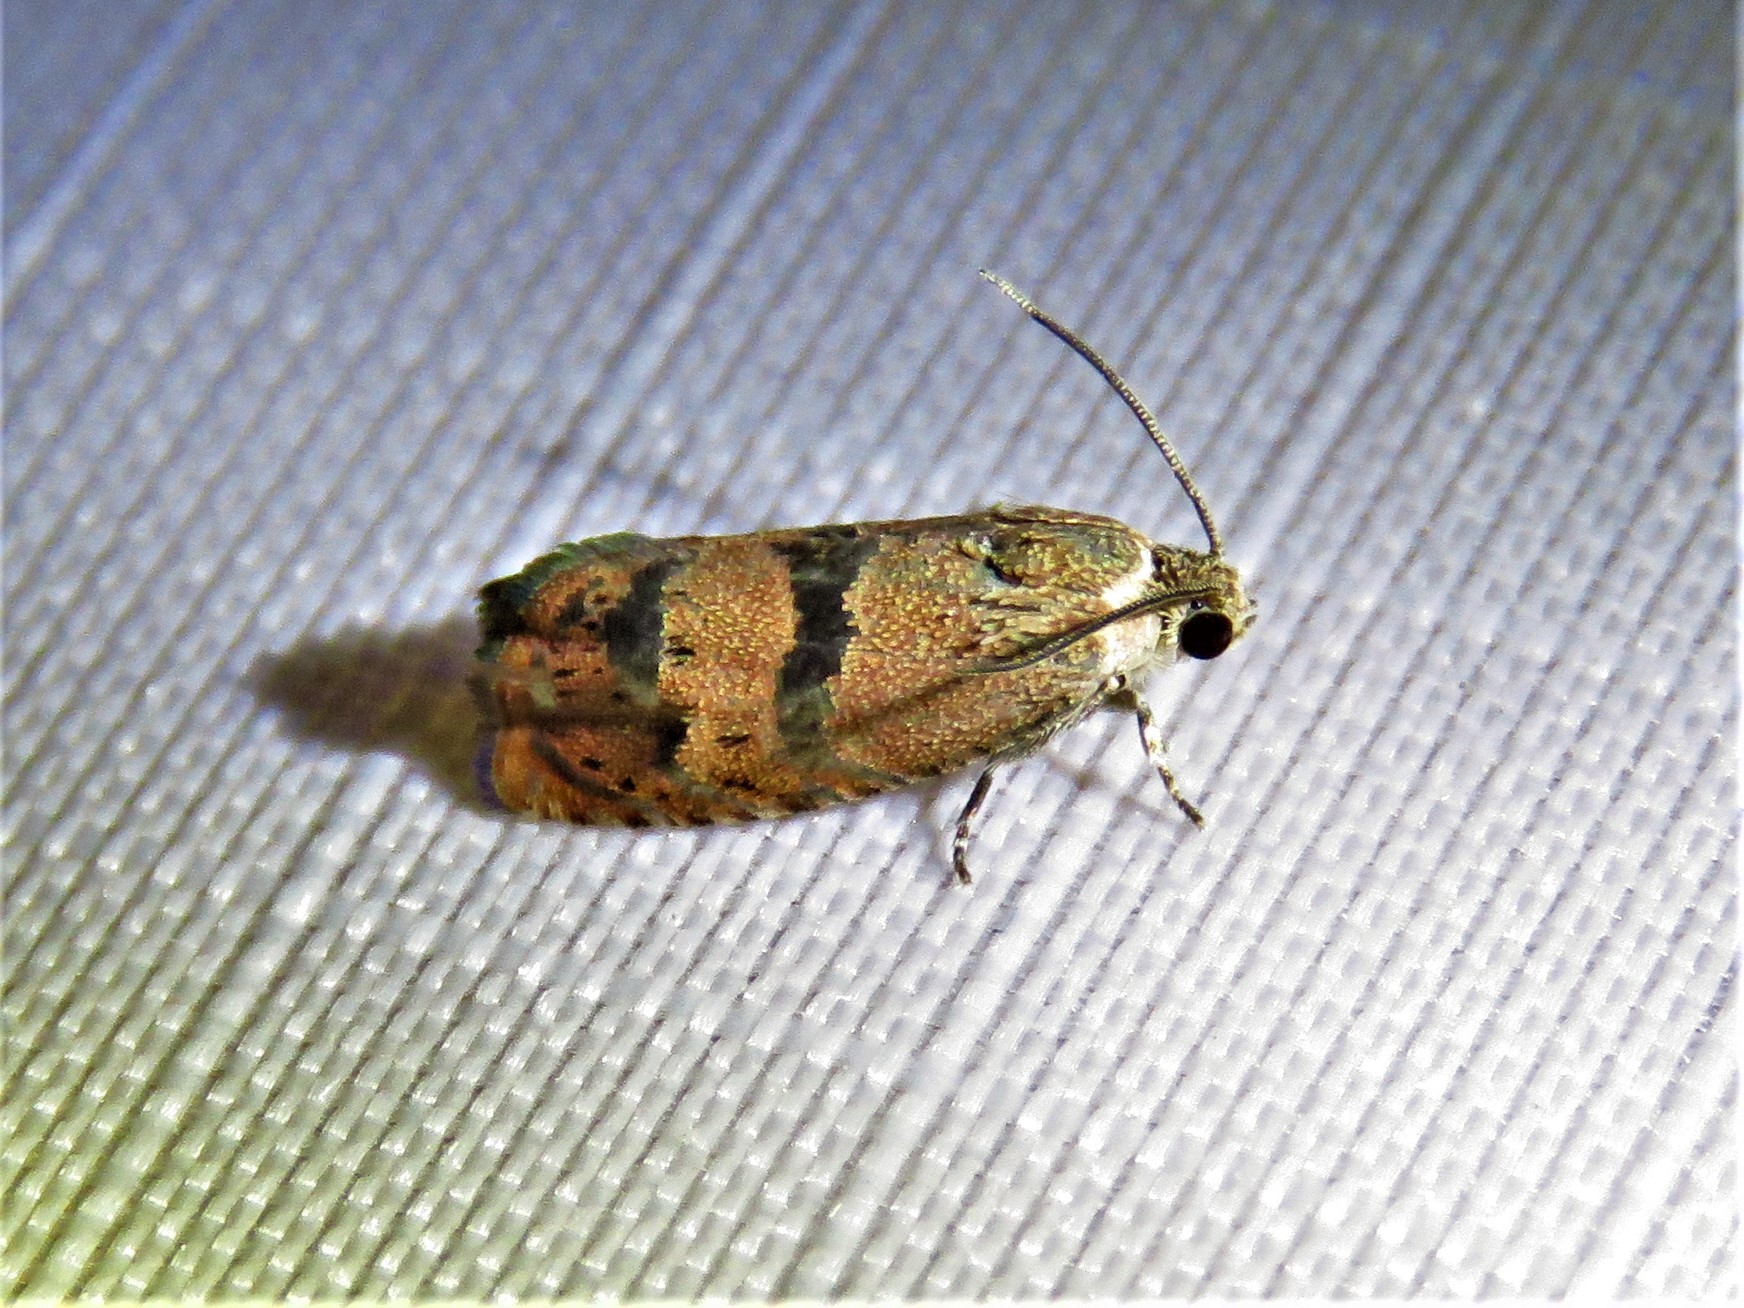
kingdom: Animalia
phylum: Arthropoda
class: Insecta
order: Lepidoptera
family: Tortricidae
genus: Cydia
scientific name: Cydia latiferreana
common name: Filbertworm moth
